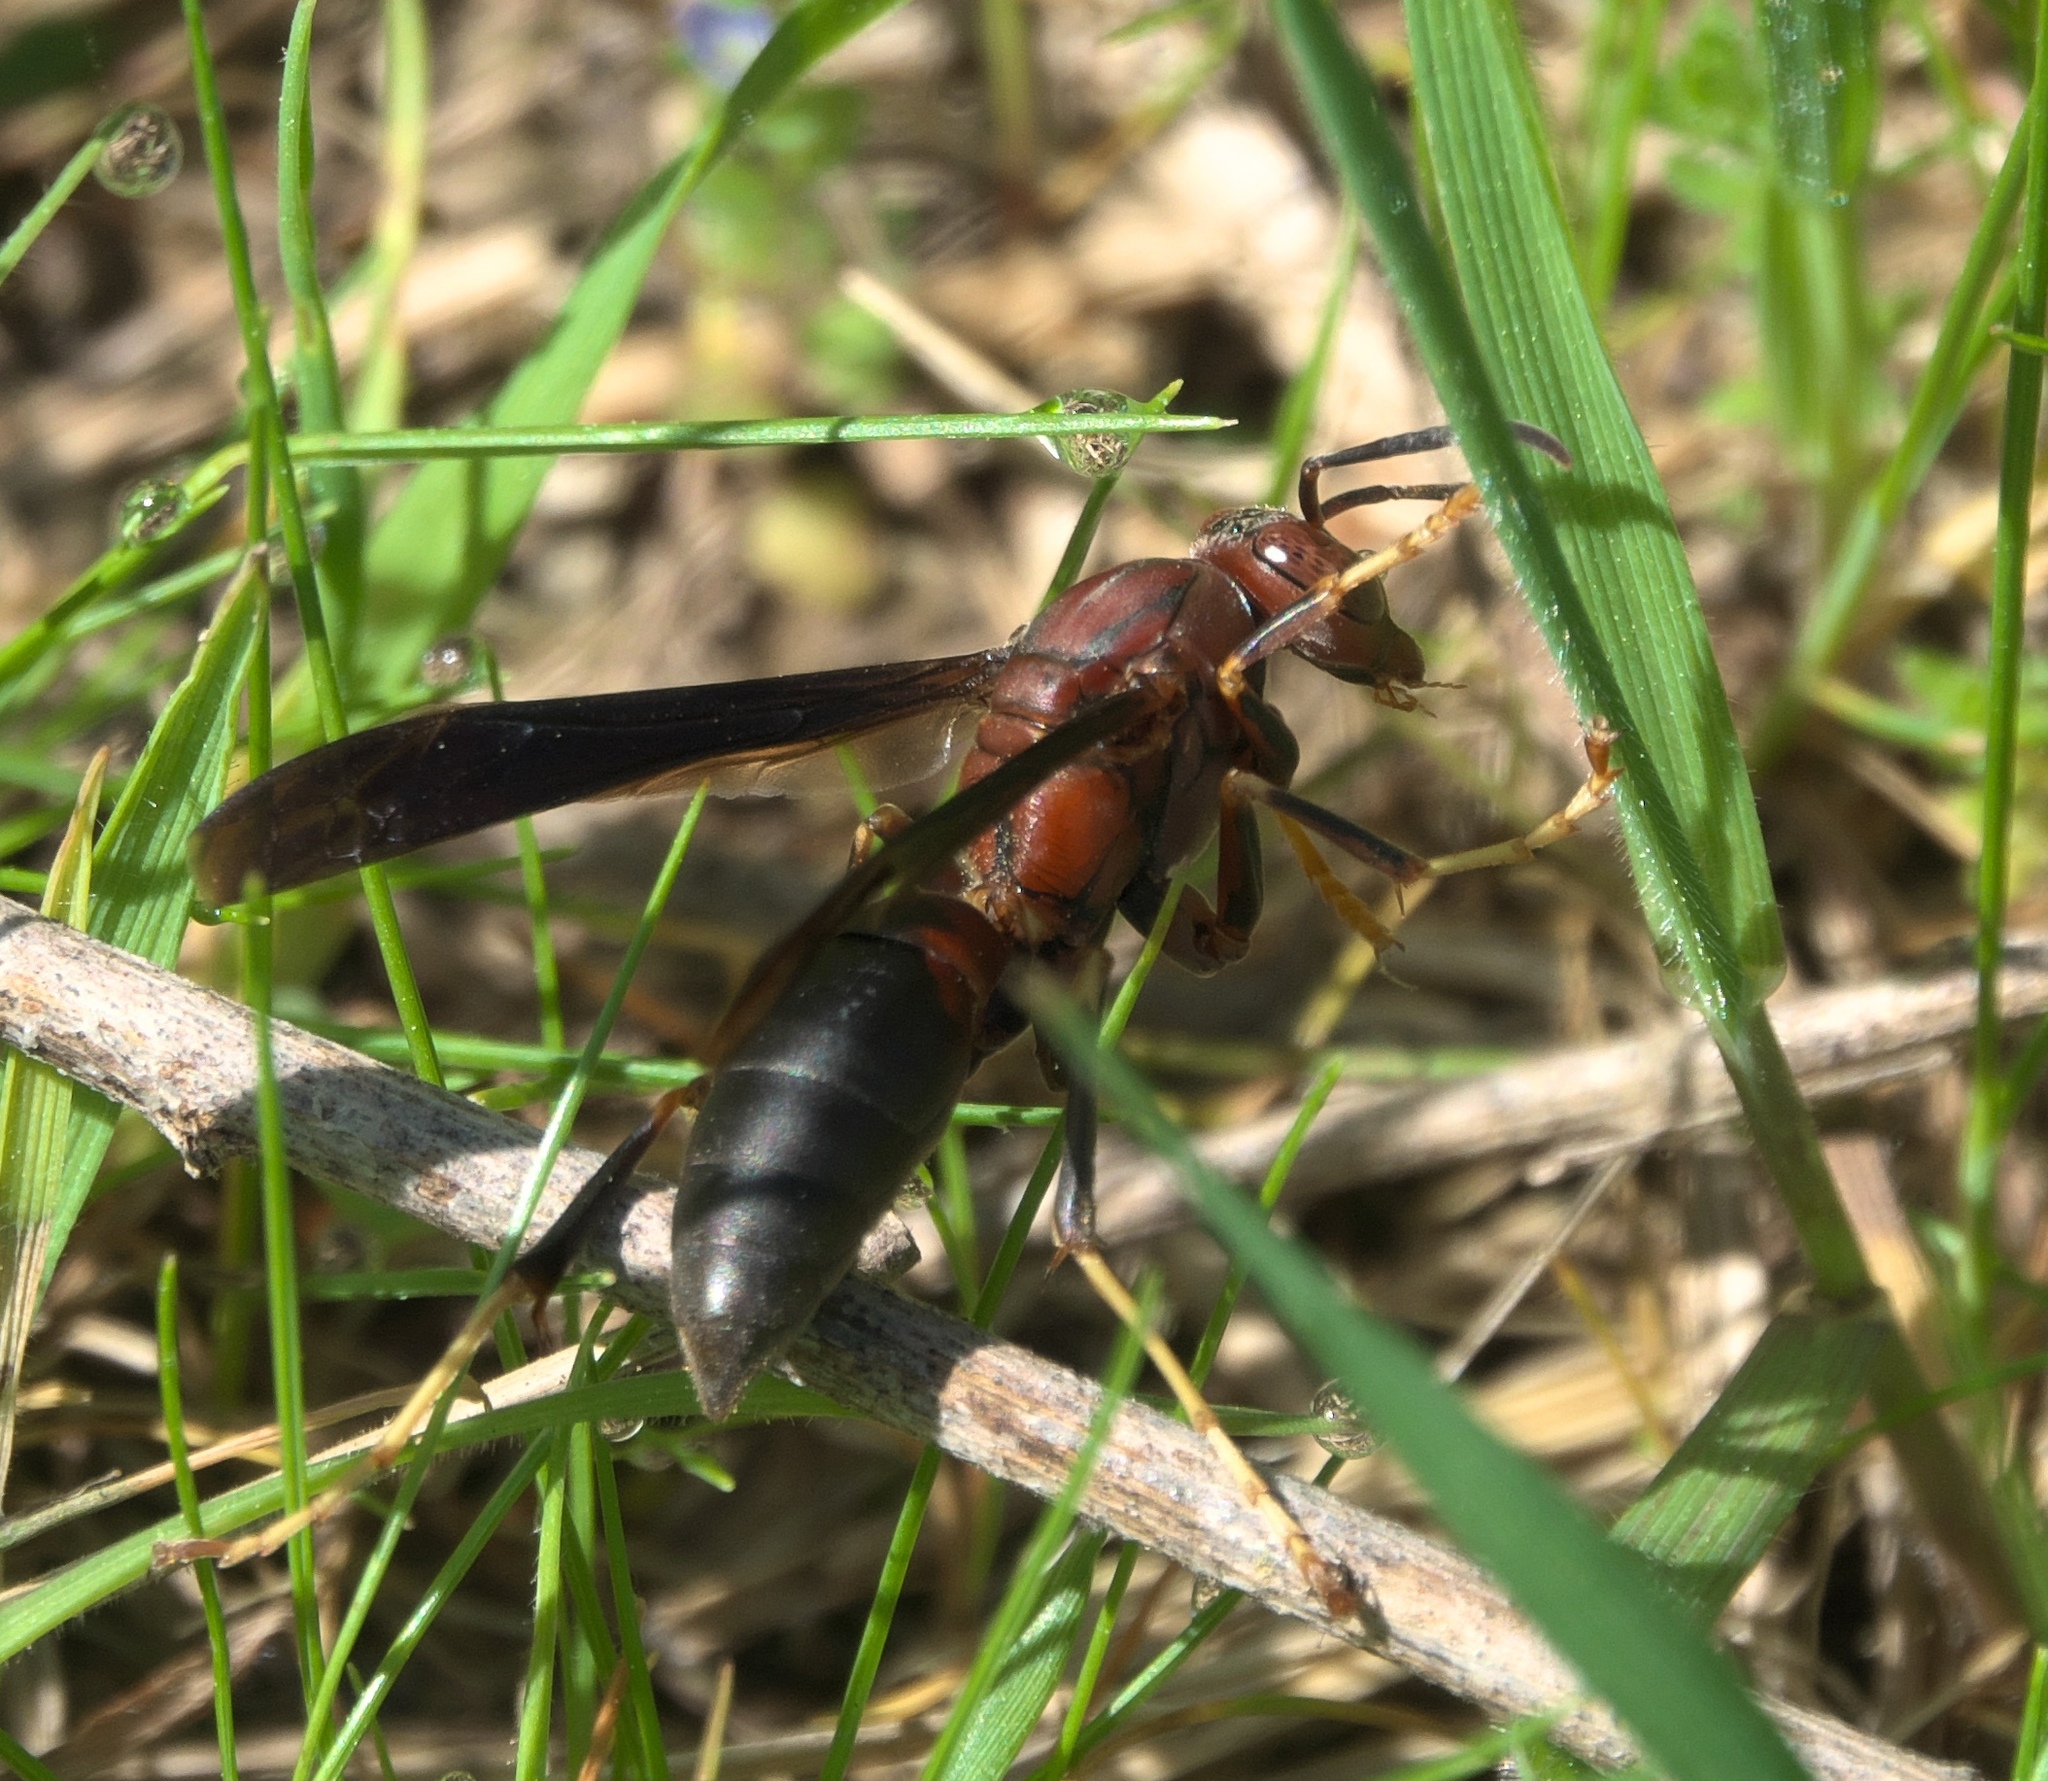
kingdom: Animalia
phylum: Arthropoda
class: Insecta
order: Hymenoptera
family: Eumenidae
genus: Polistes
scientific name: Polistes metricus
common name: Metric paper wasp
